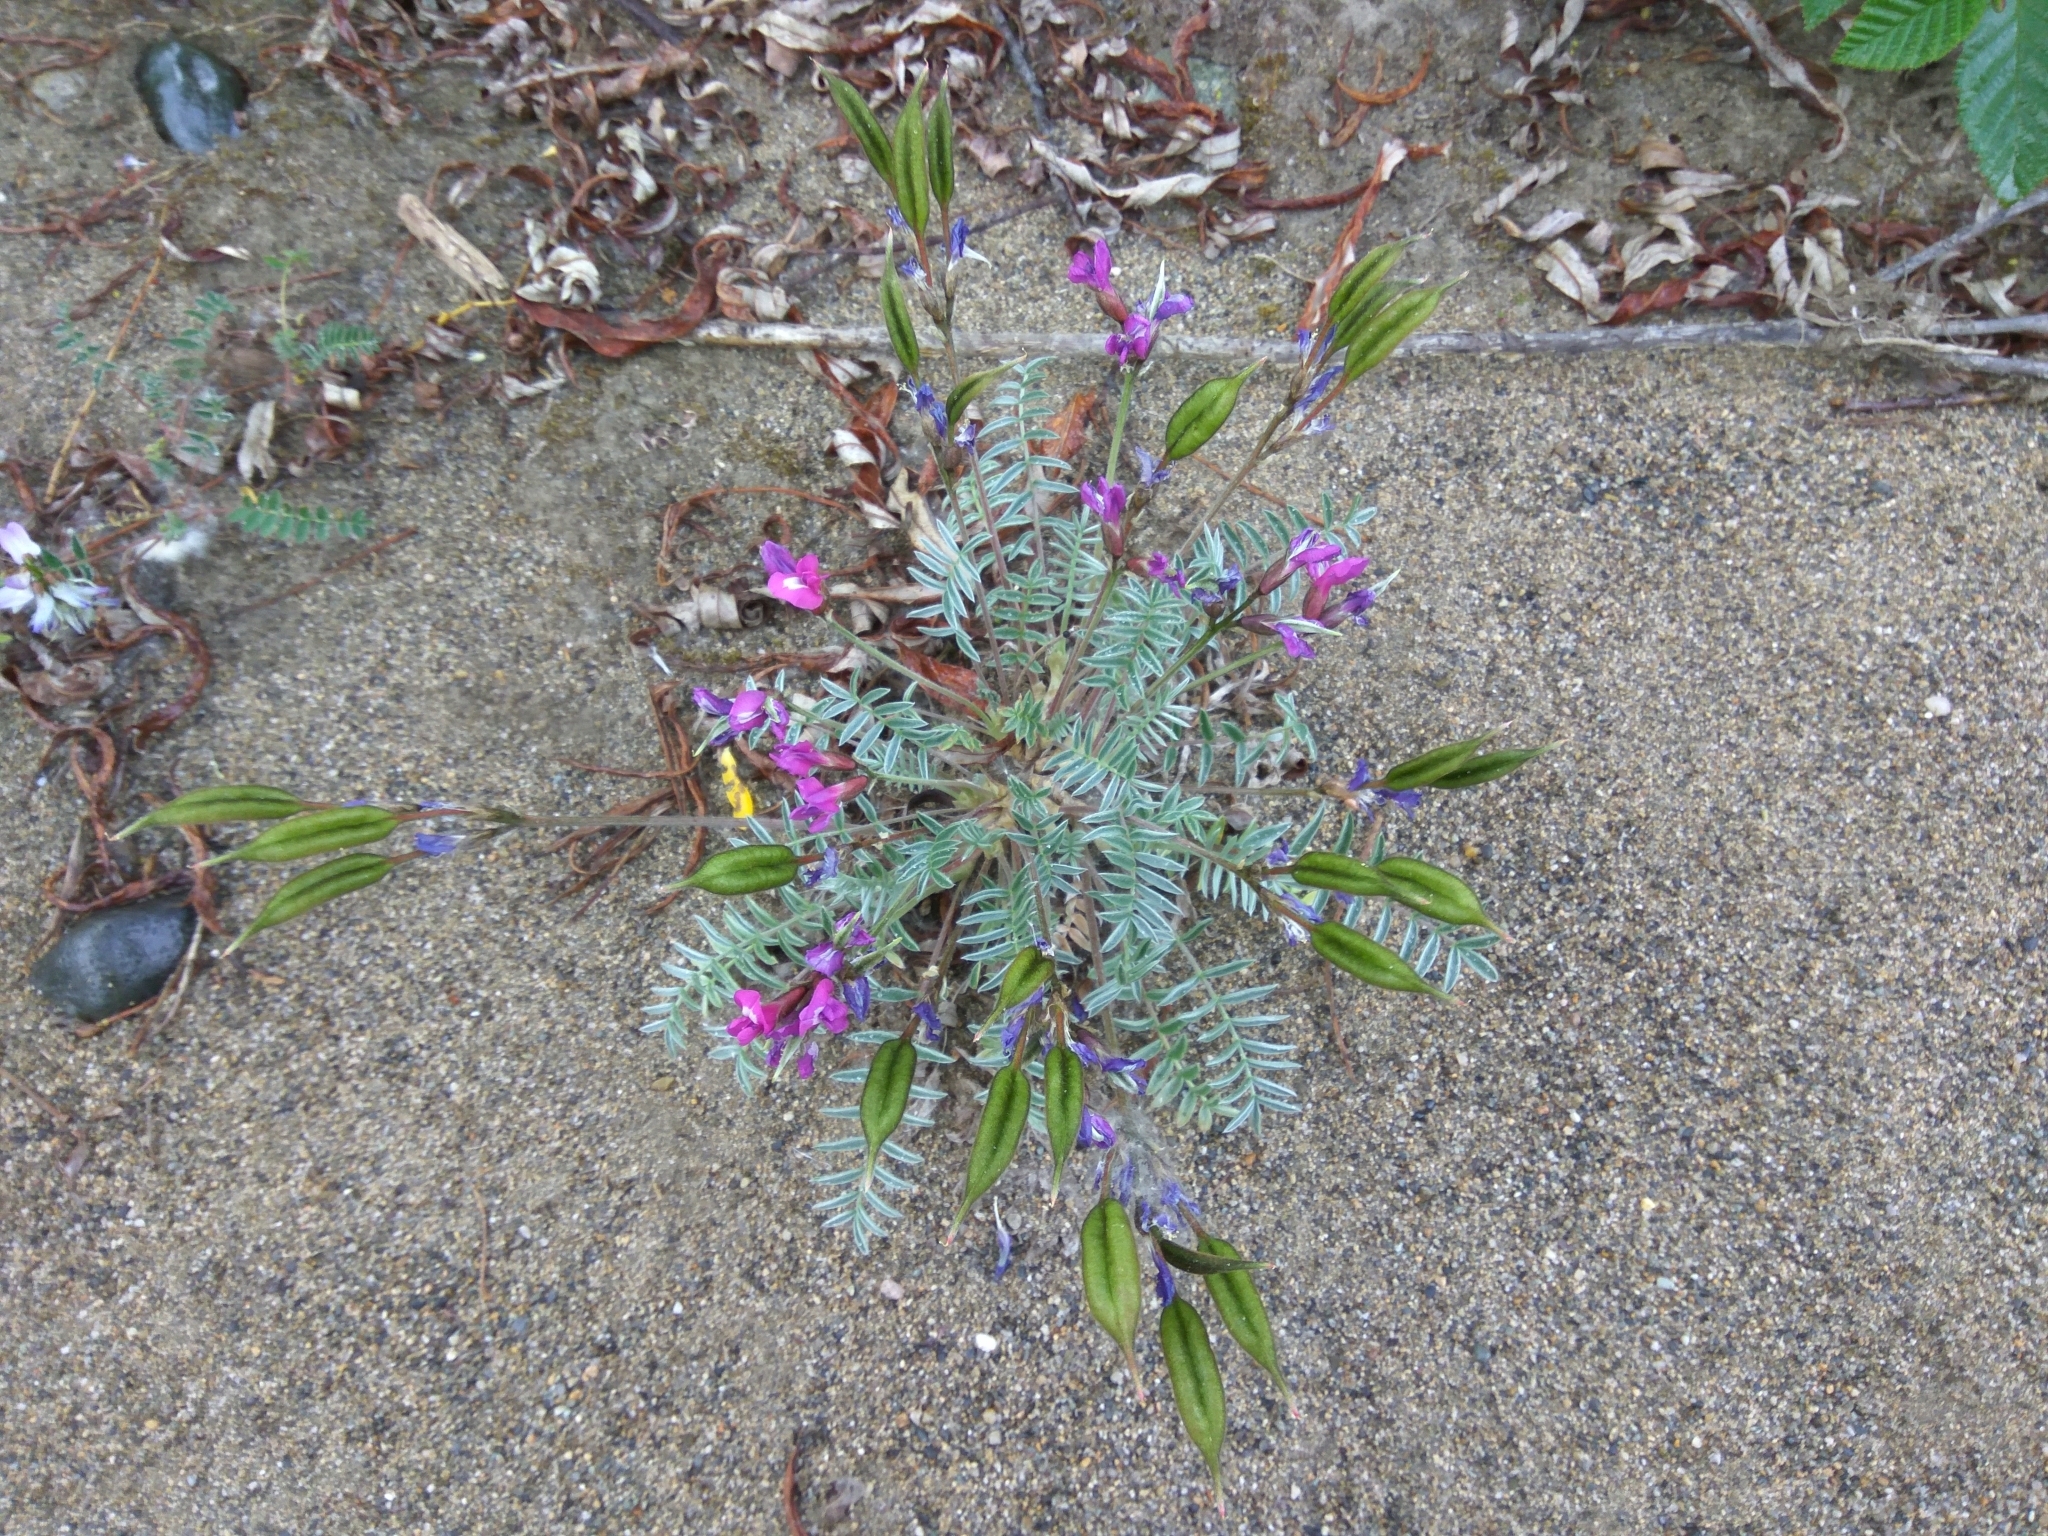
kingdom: Plantae
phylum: Tracheophyta
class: Magnoliopsida
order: Fabales
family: Fabaceae
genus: Oxytropis
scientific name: Oxytropis exserta
